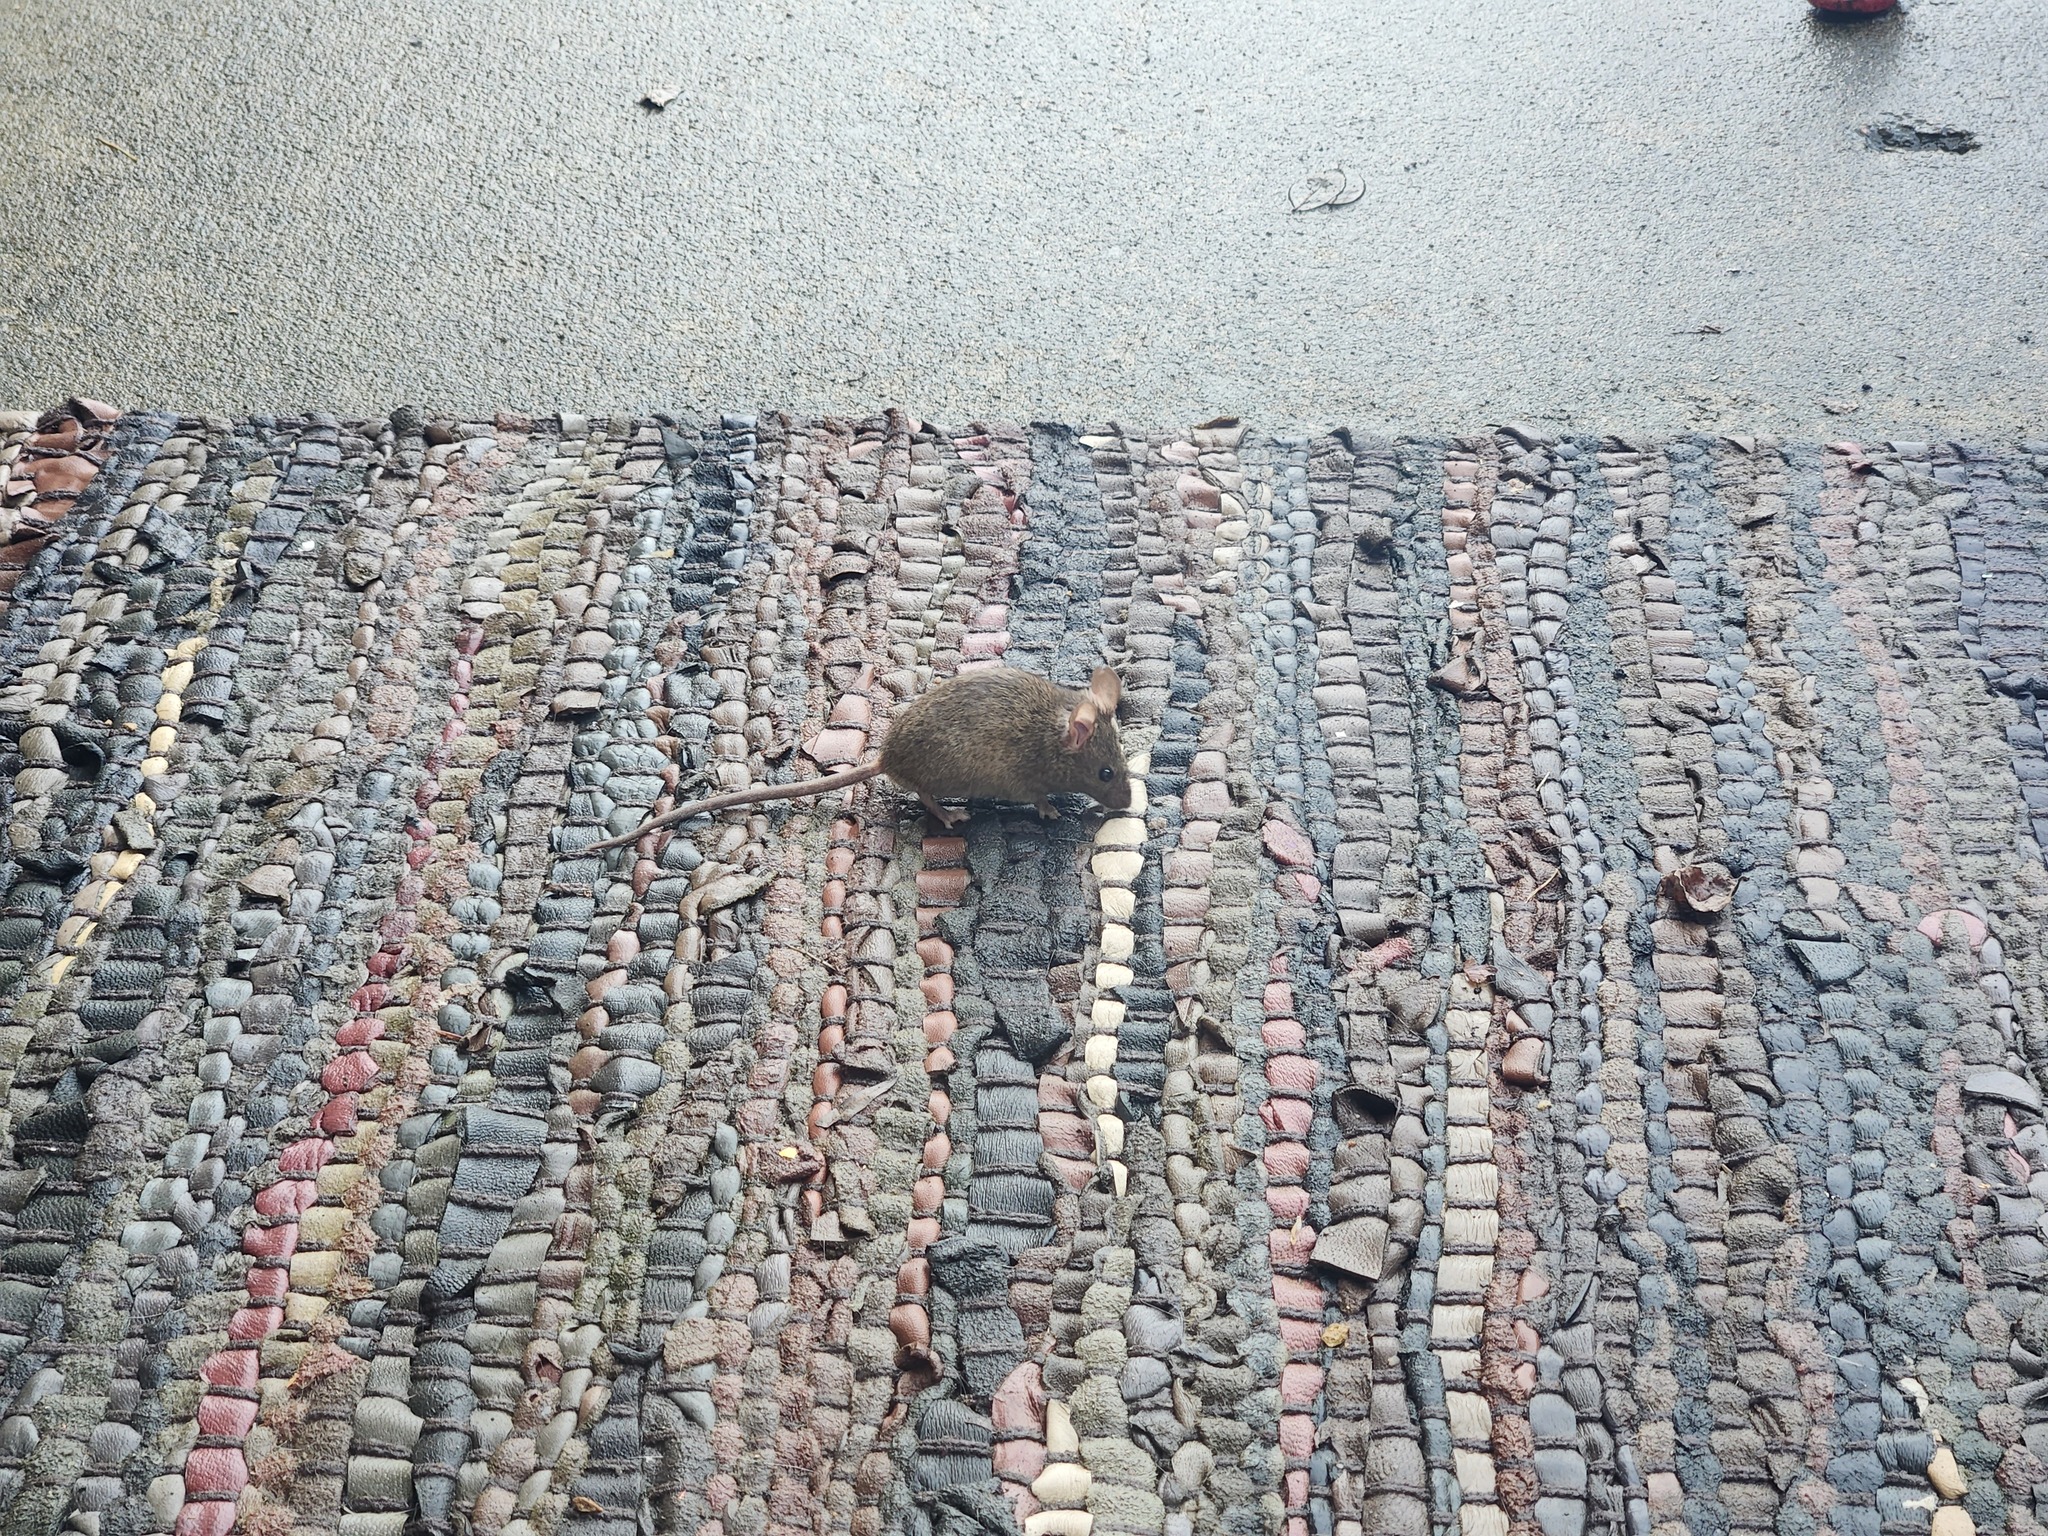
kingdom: Animalia
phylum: Chordata
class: Mammalia
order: Rodentia
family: Muridae
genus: Mus
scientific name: Mus musculus
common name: House mouse
